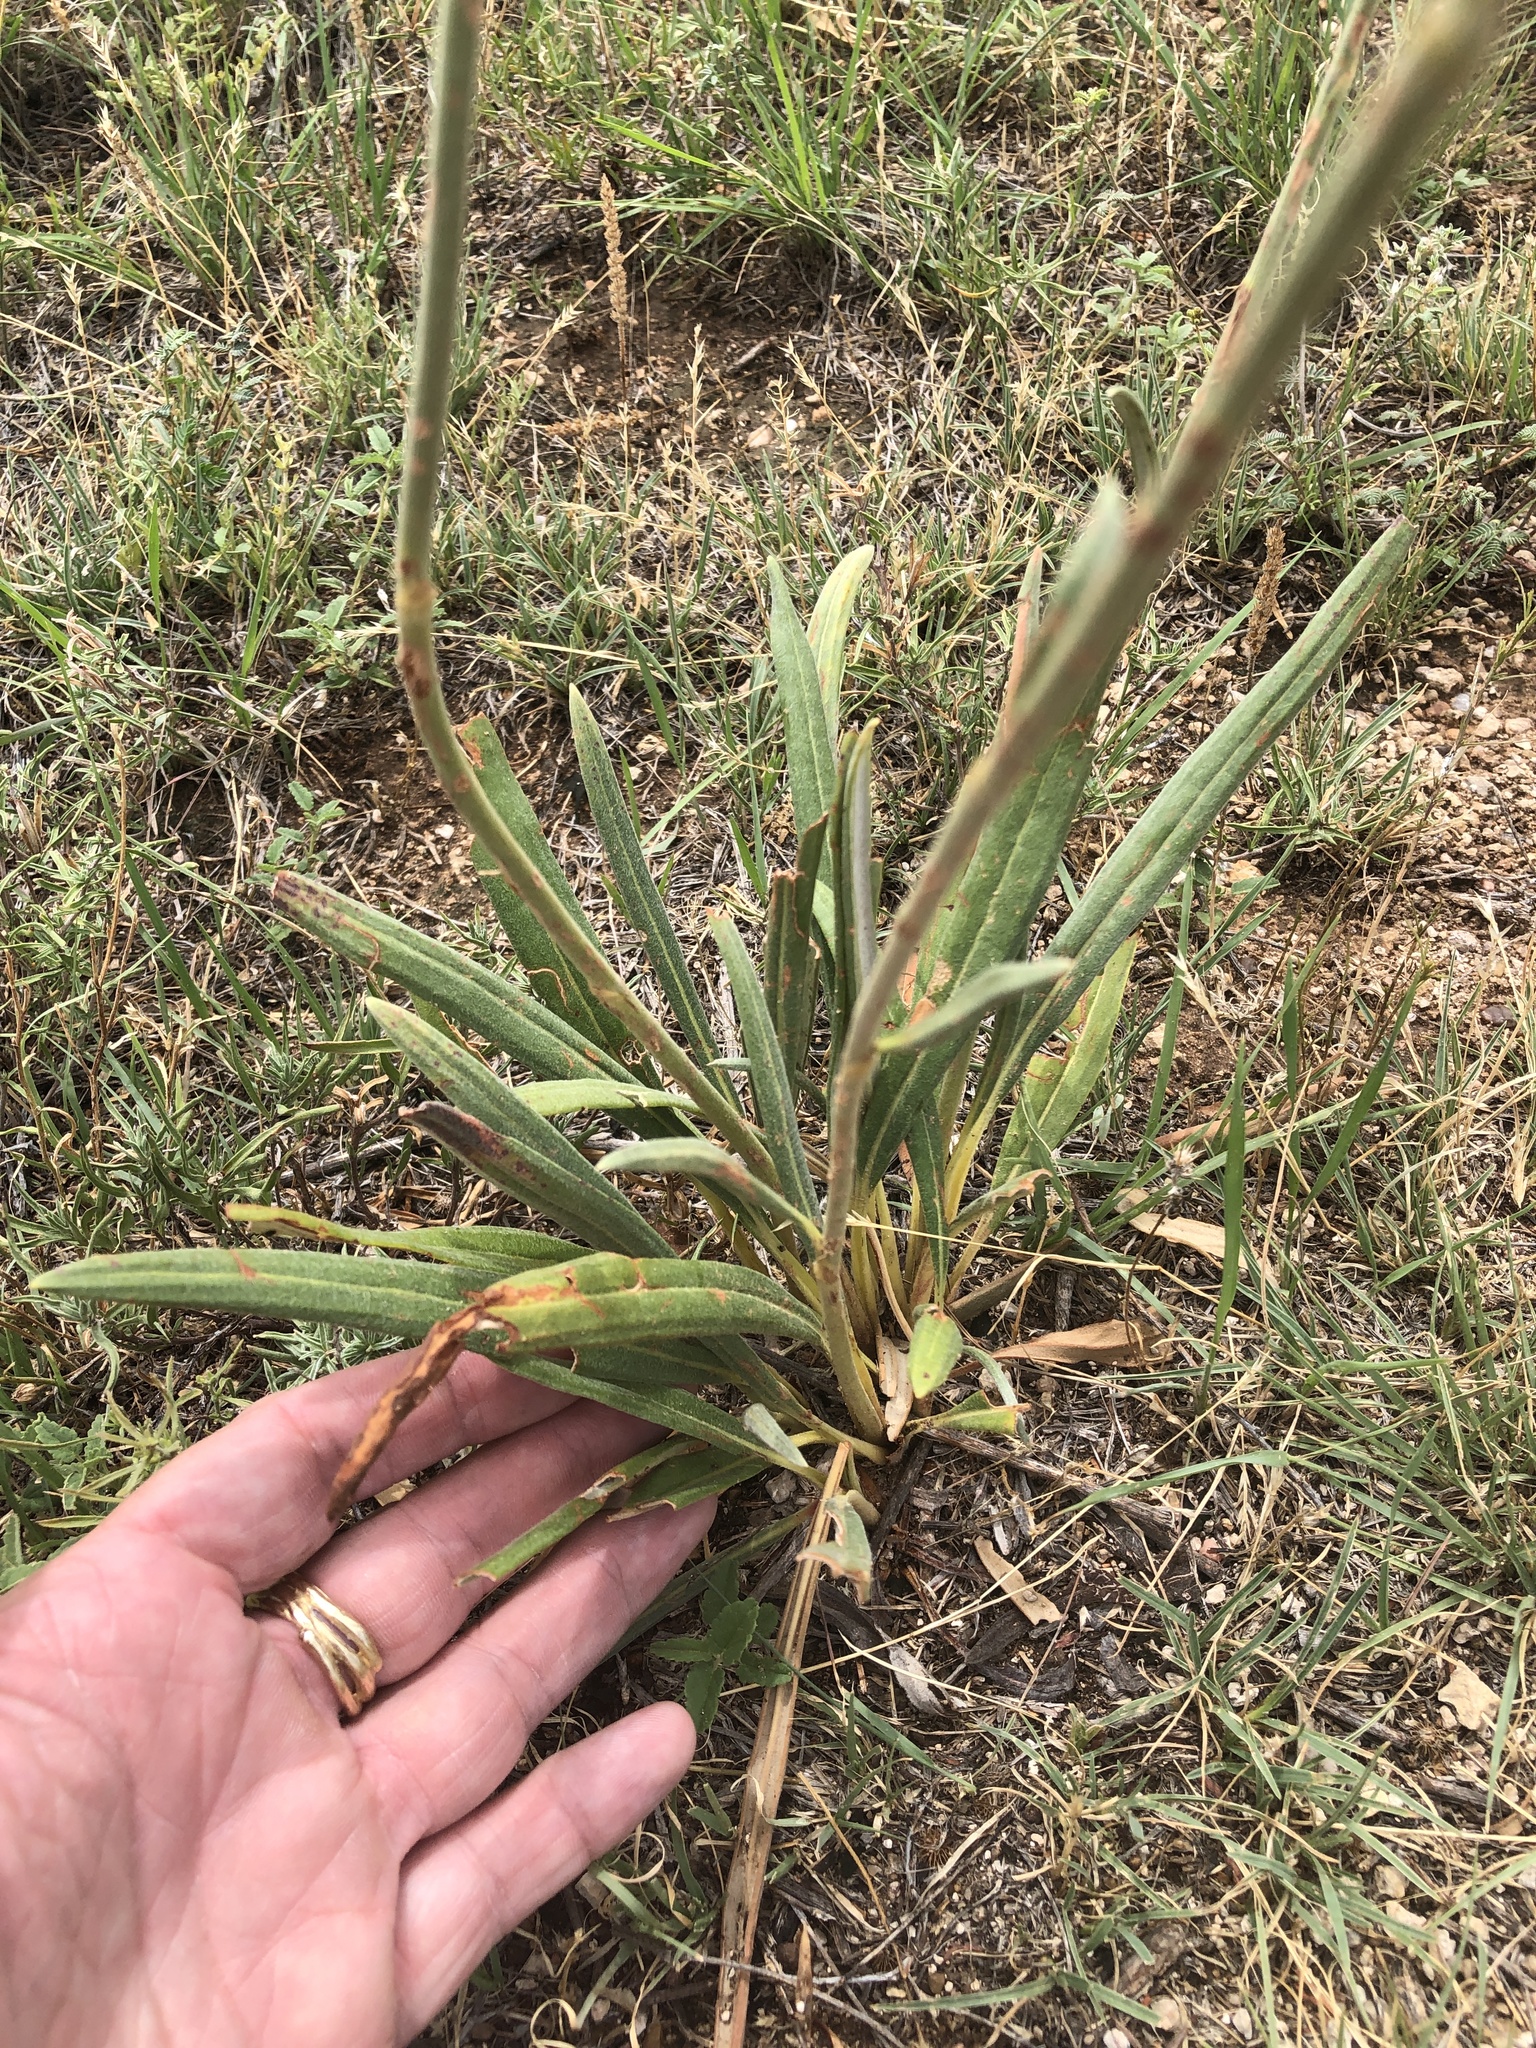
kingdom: Plantae
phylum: Tracheophyta
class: Magnoliopsida
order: Caryophyllales
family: Polygonaceae
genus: Eriogonum
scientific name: Eriogonum longifolium
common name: Longleaf wild buckwheat
